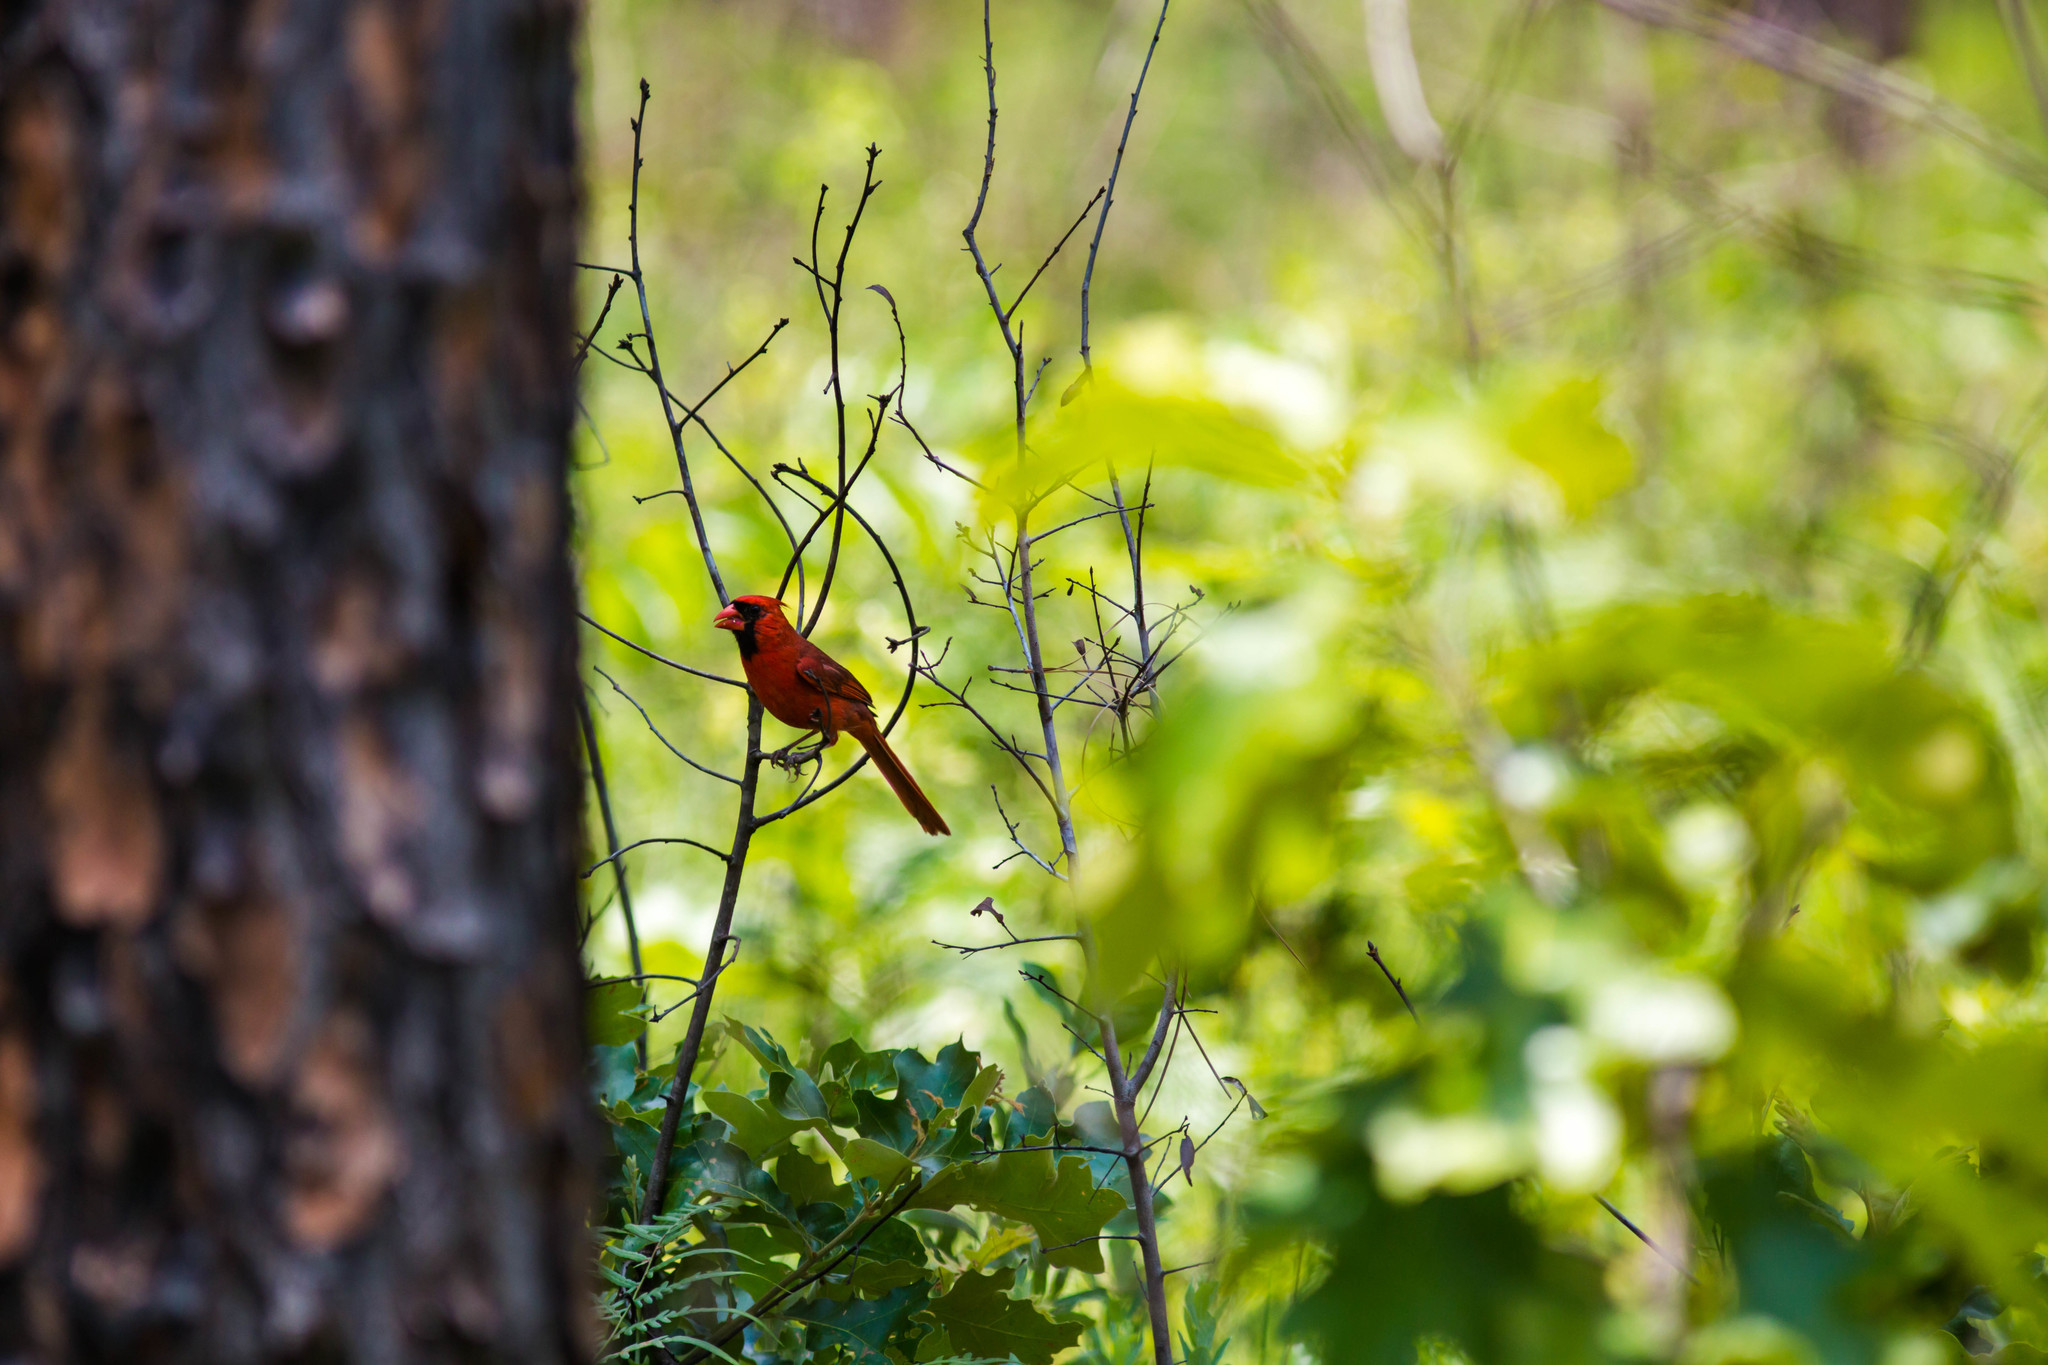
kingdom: Animalia
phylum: Chordata
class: Aves
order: Passeriformes
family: Cardinalidae
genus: Cardinalis
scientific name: Cardinalis cardinalis
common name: Northern cardinal
